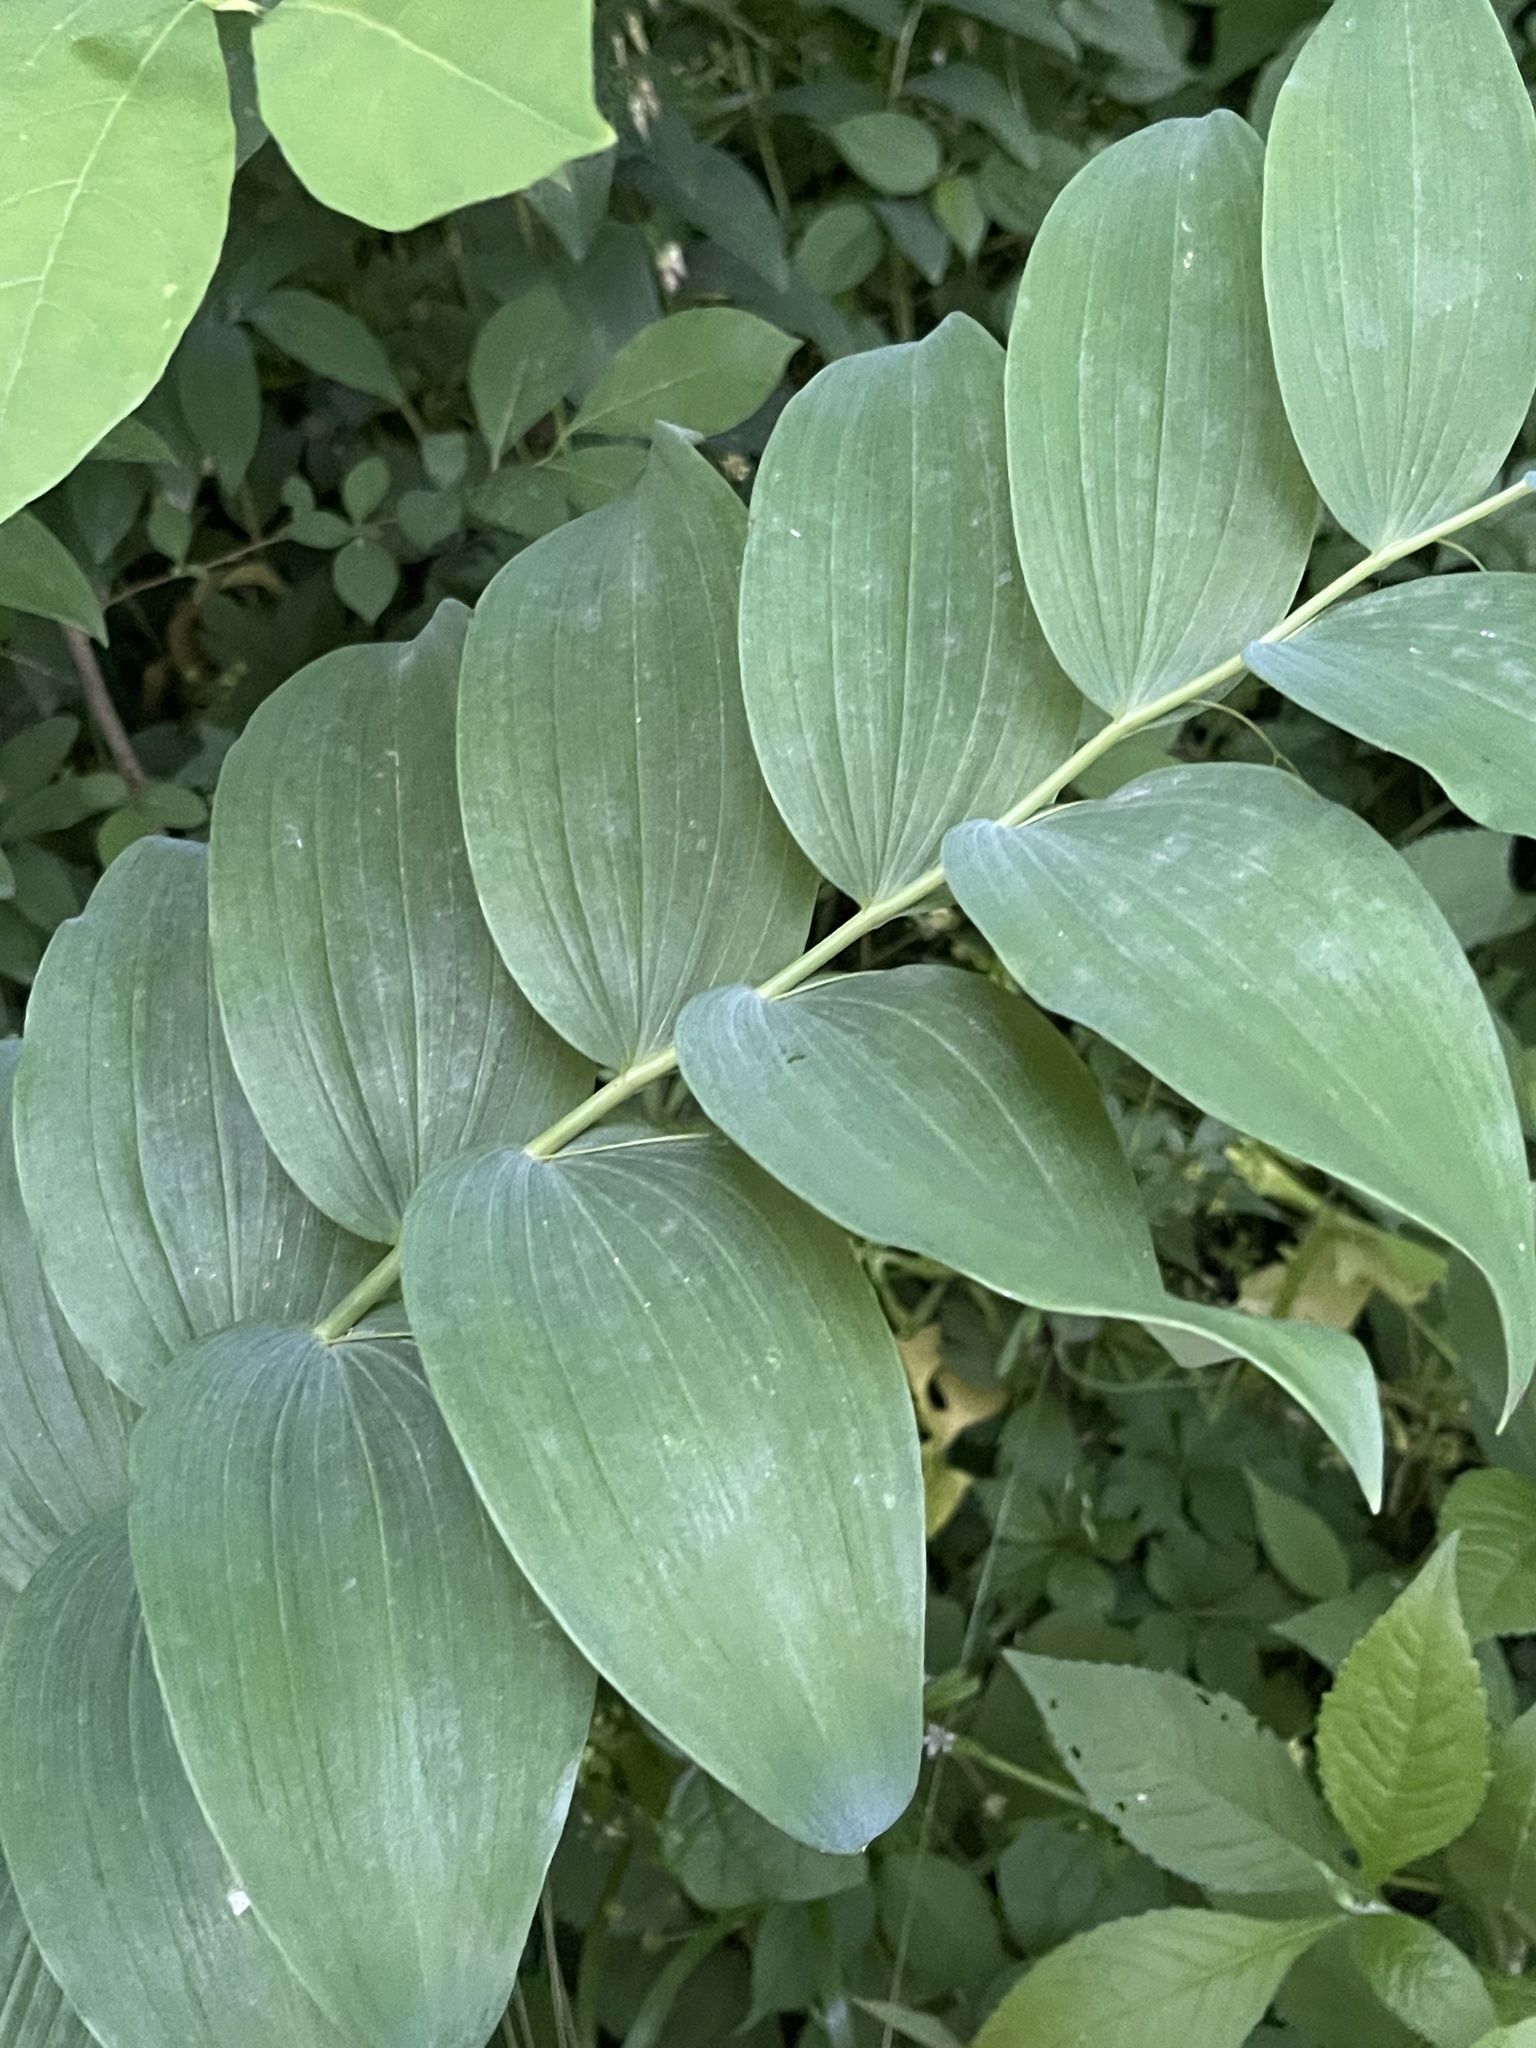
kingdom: Plantae
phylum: Tracheophyta
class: Liliopsida
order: Asparagales
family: Asparagaceae
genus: Polygonatum
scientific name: Polygonatum biflorum
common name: American solomon's-seal
